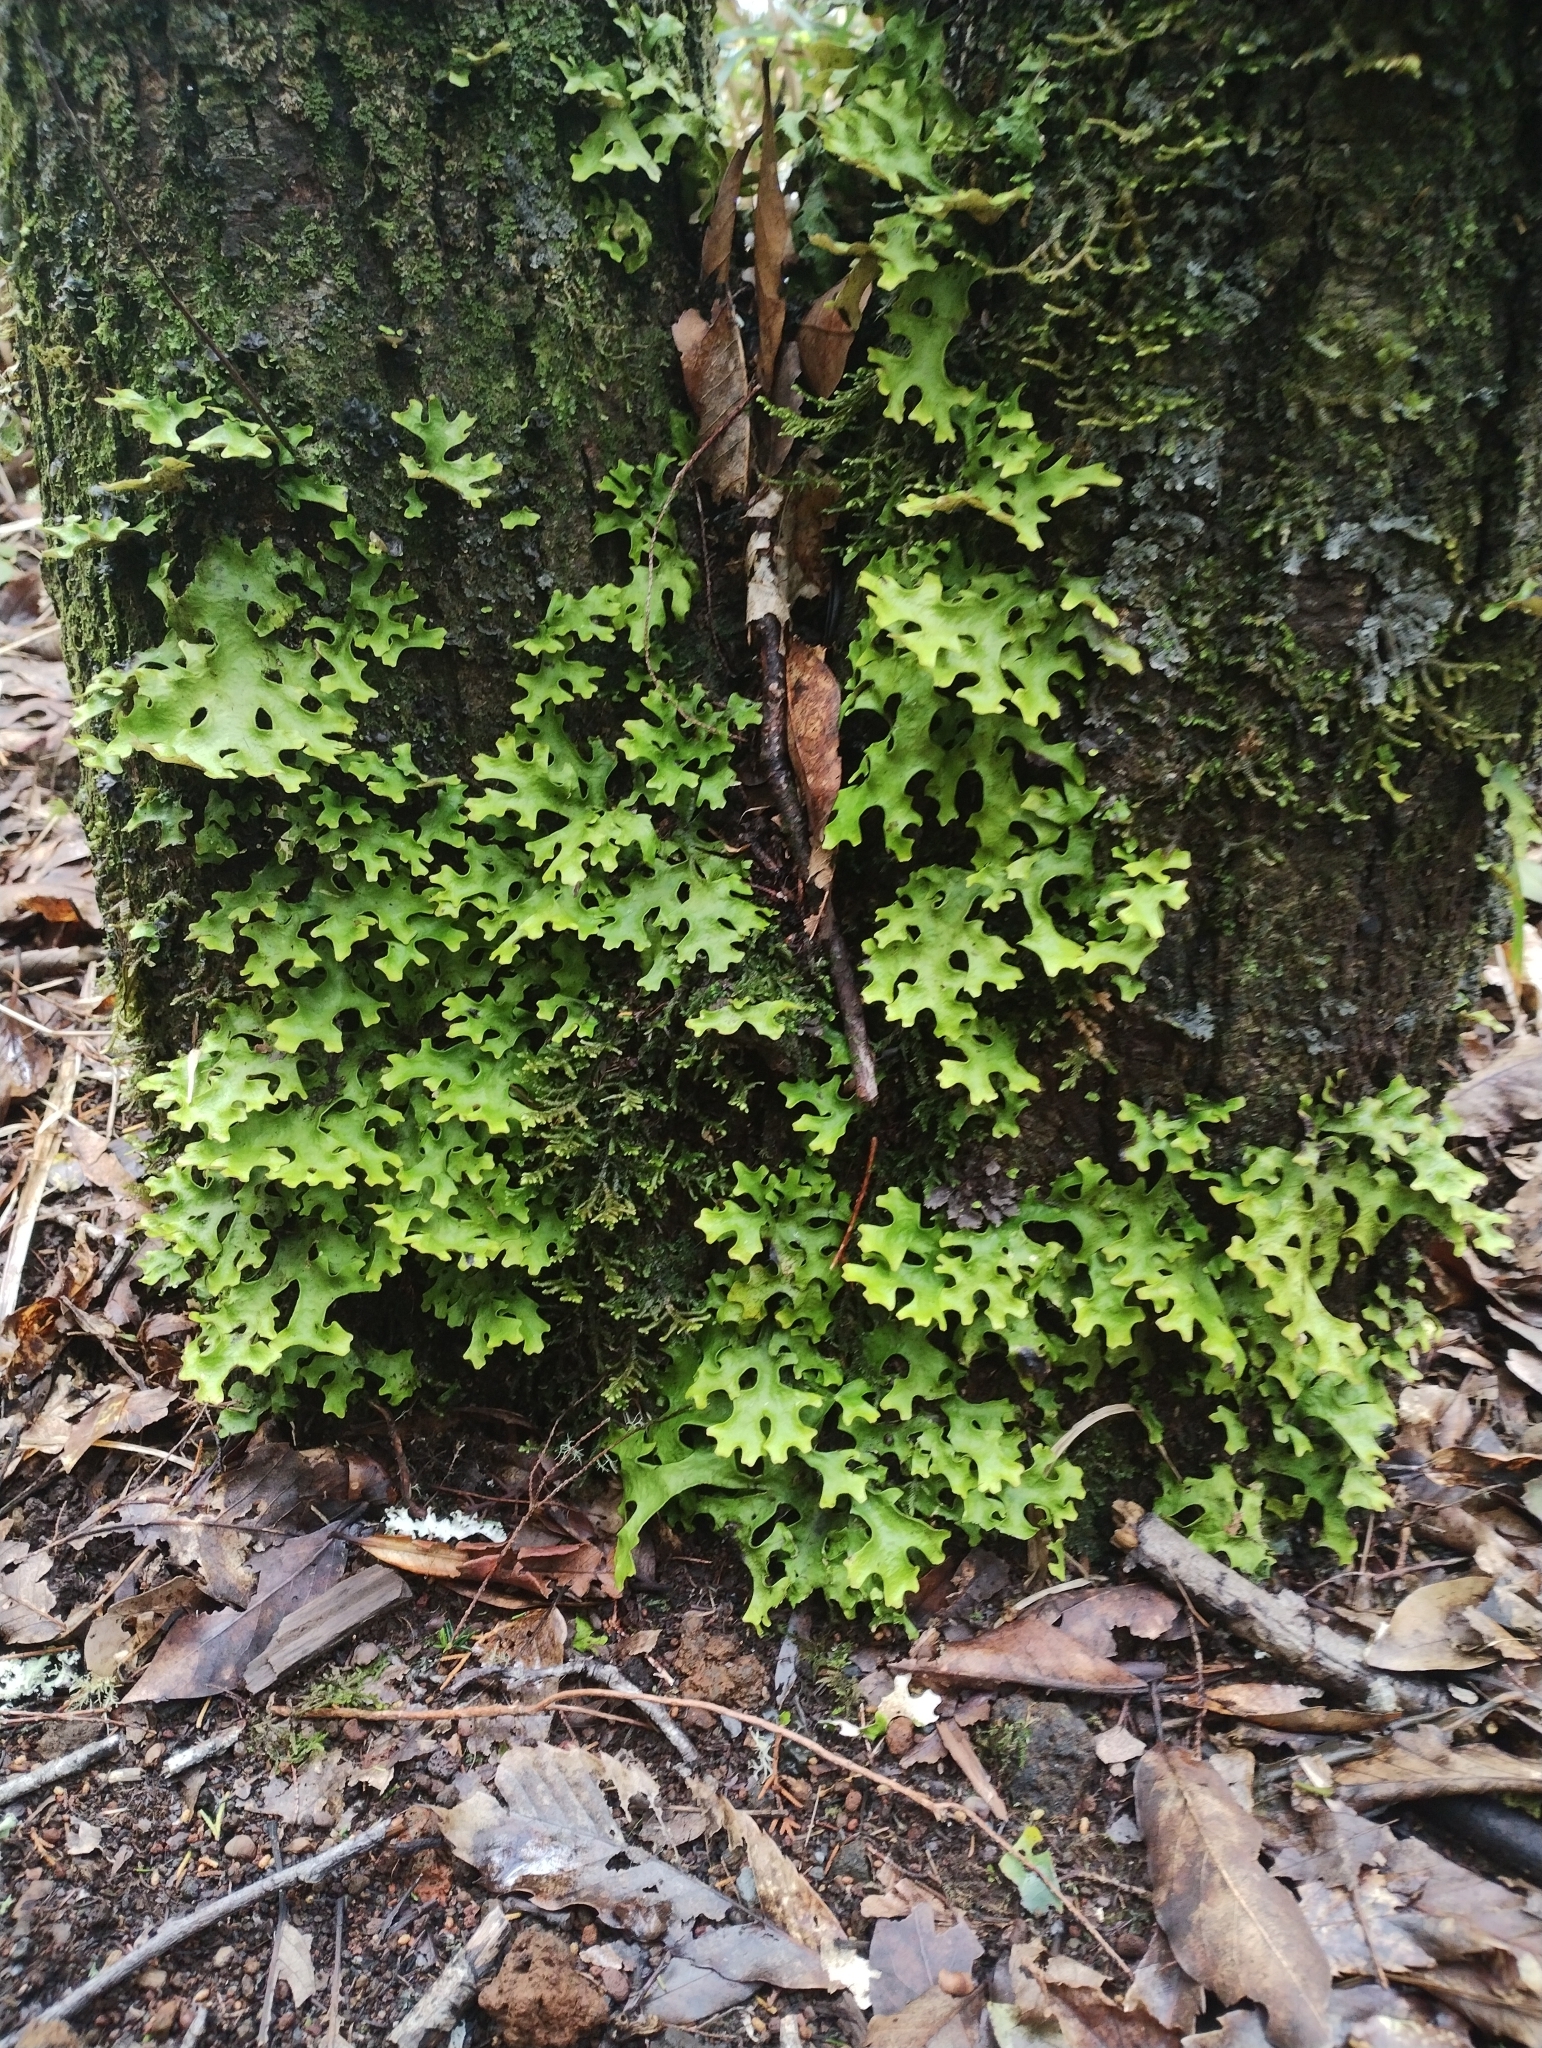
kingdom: Fungi
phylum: Ascomycota
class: Lecanoromycetes
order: Peltigerales
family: Lobariaceae
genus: Sticta
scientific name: Sticta canariensis
